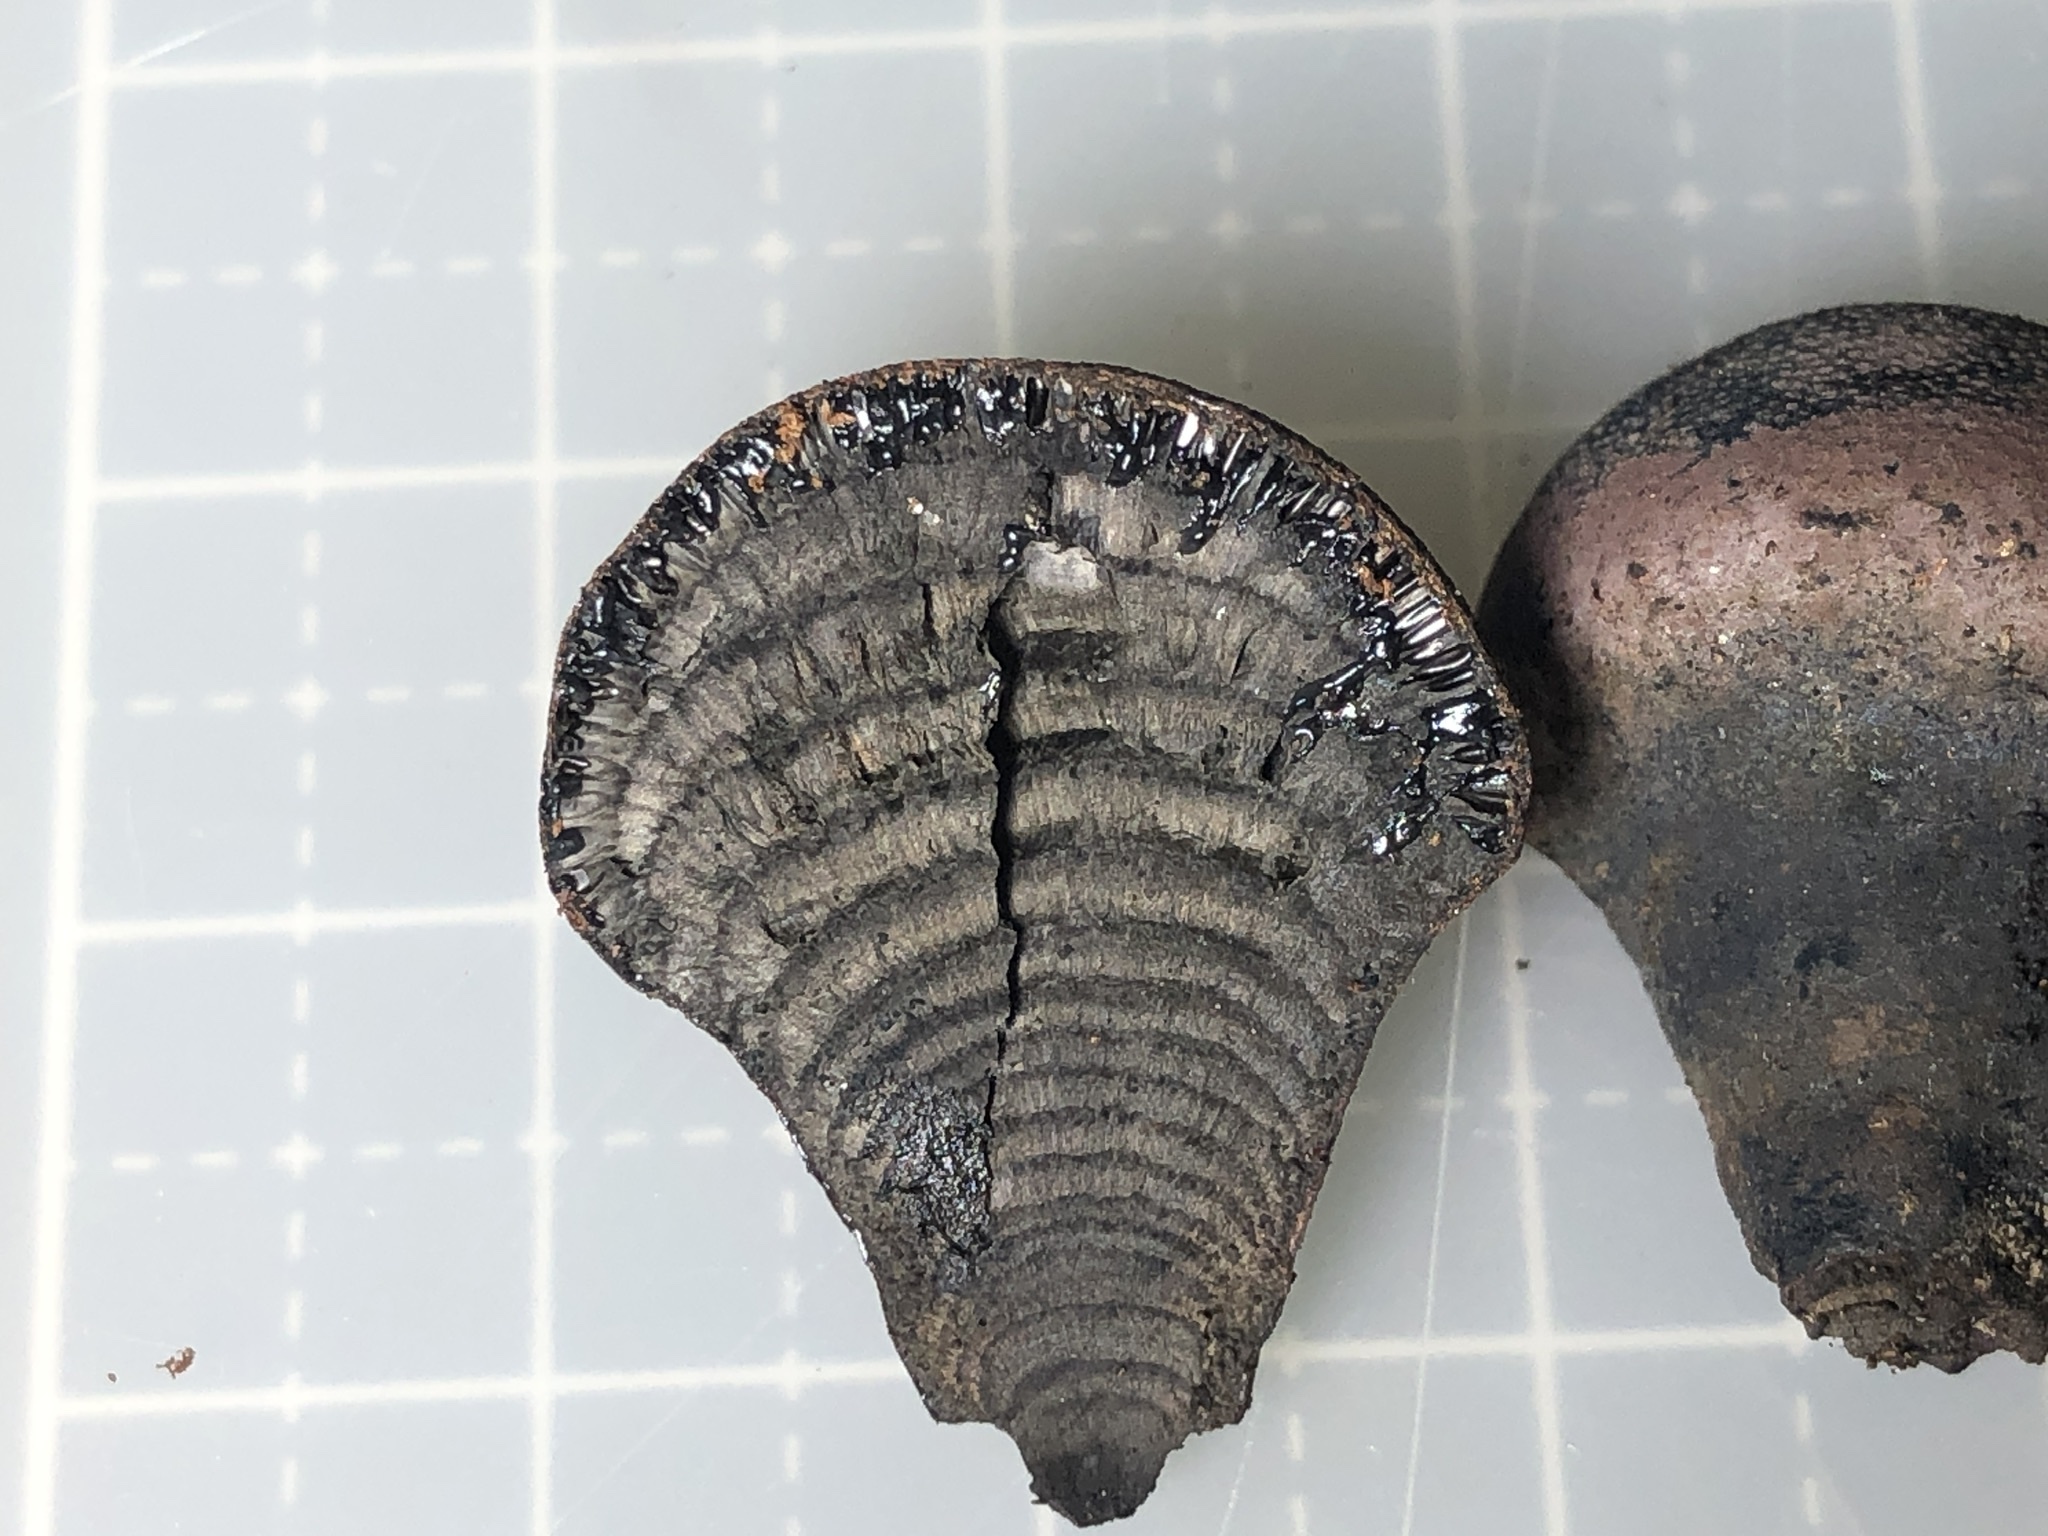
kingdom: Fungi
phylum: Ascomycota
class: Sordariomycetes
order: Xylariales
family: Hypoxylaceae
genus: Daldinia
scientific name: Daldinia childiae
